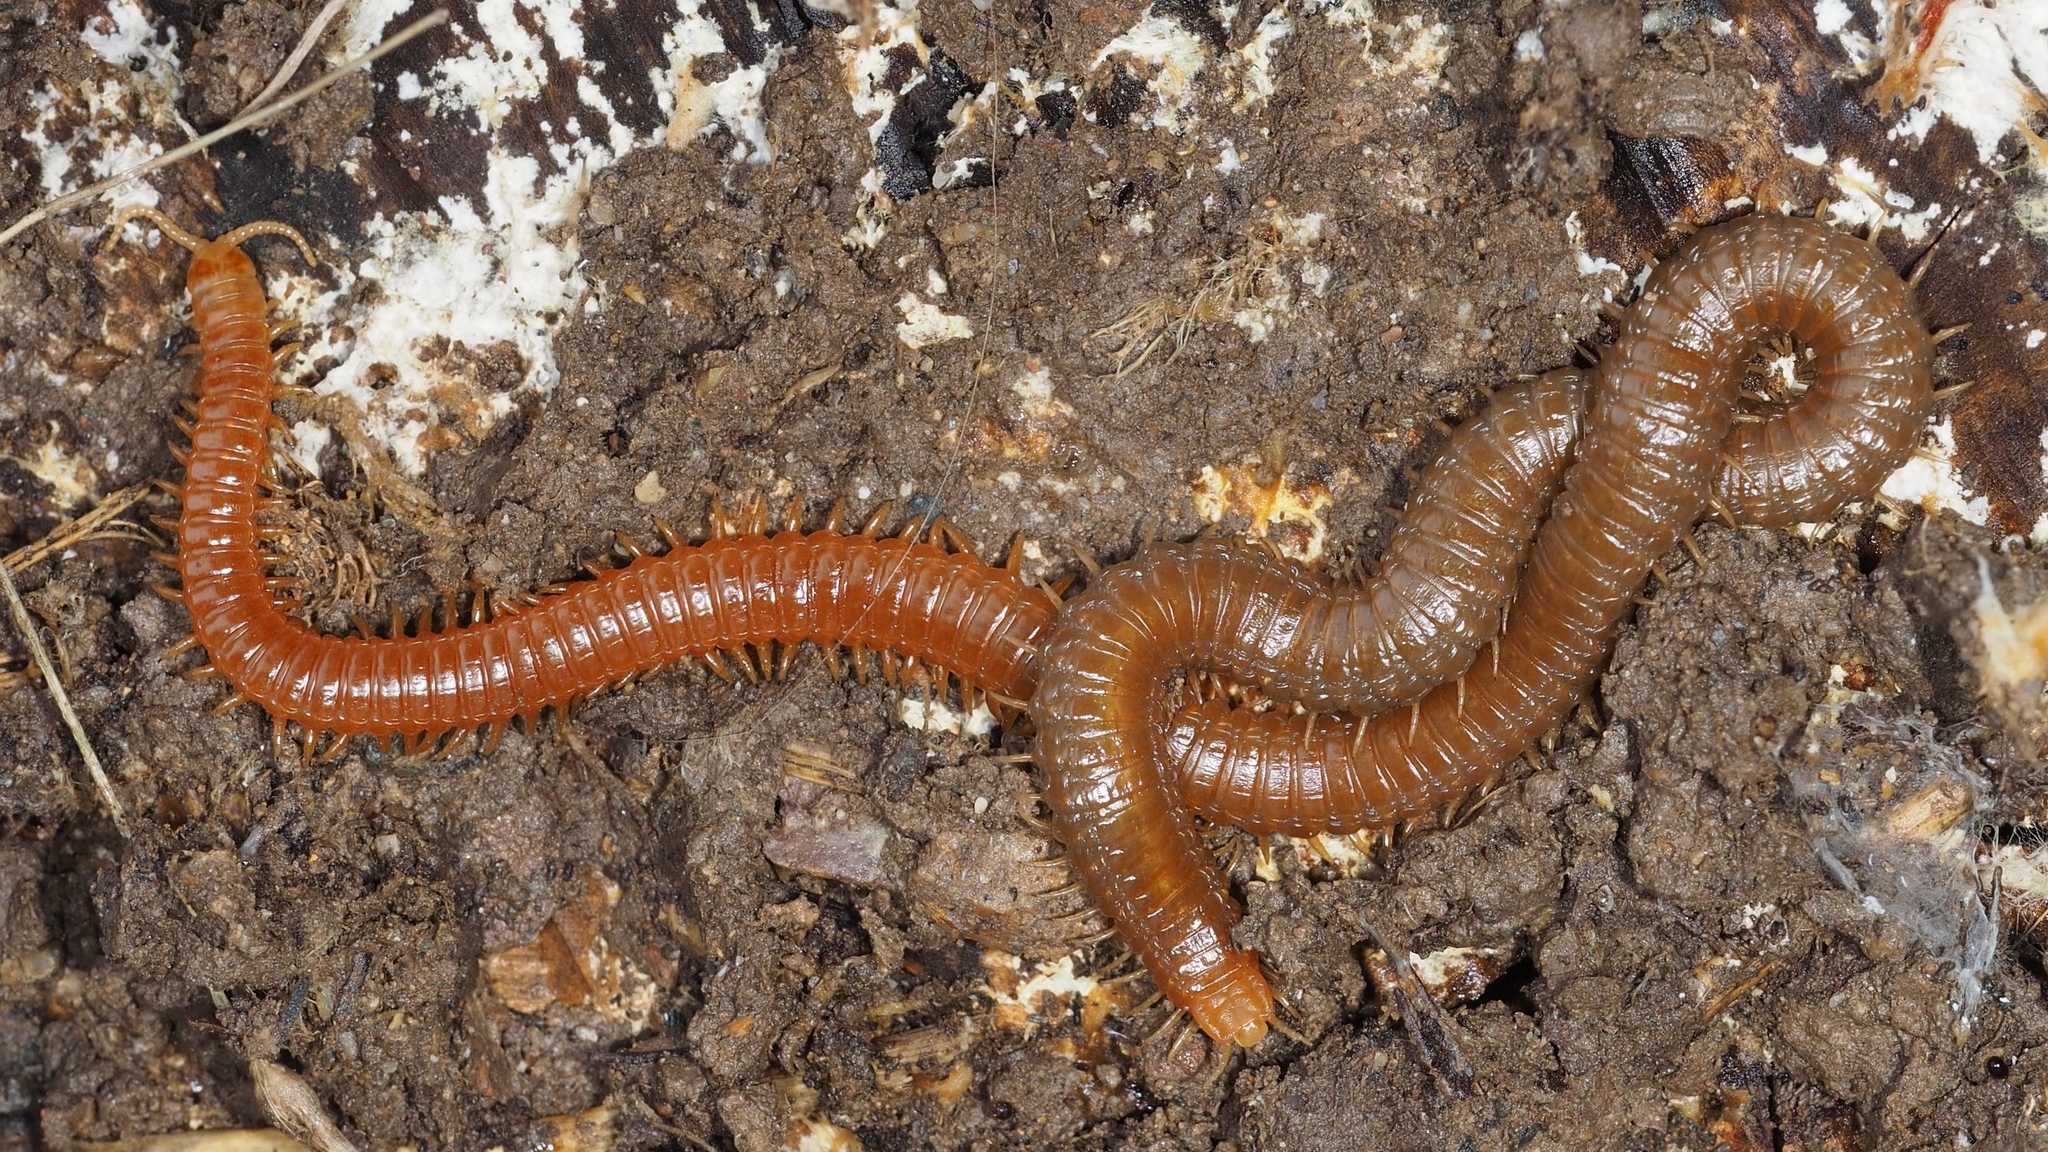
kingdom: Animalia
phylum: Arthropoda
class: Chilopoda
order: Geophilomorpha
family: Himantariidae
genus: Himantarium
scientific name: Himantarium gabrielis
